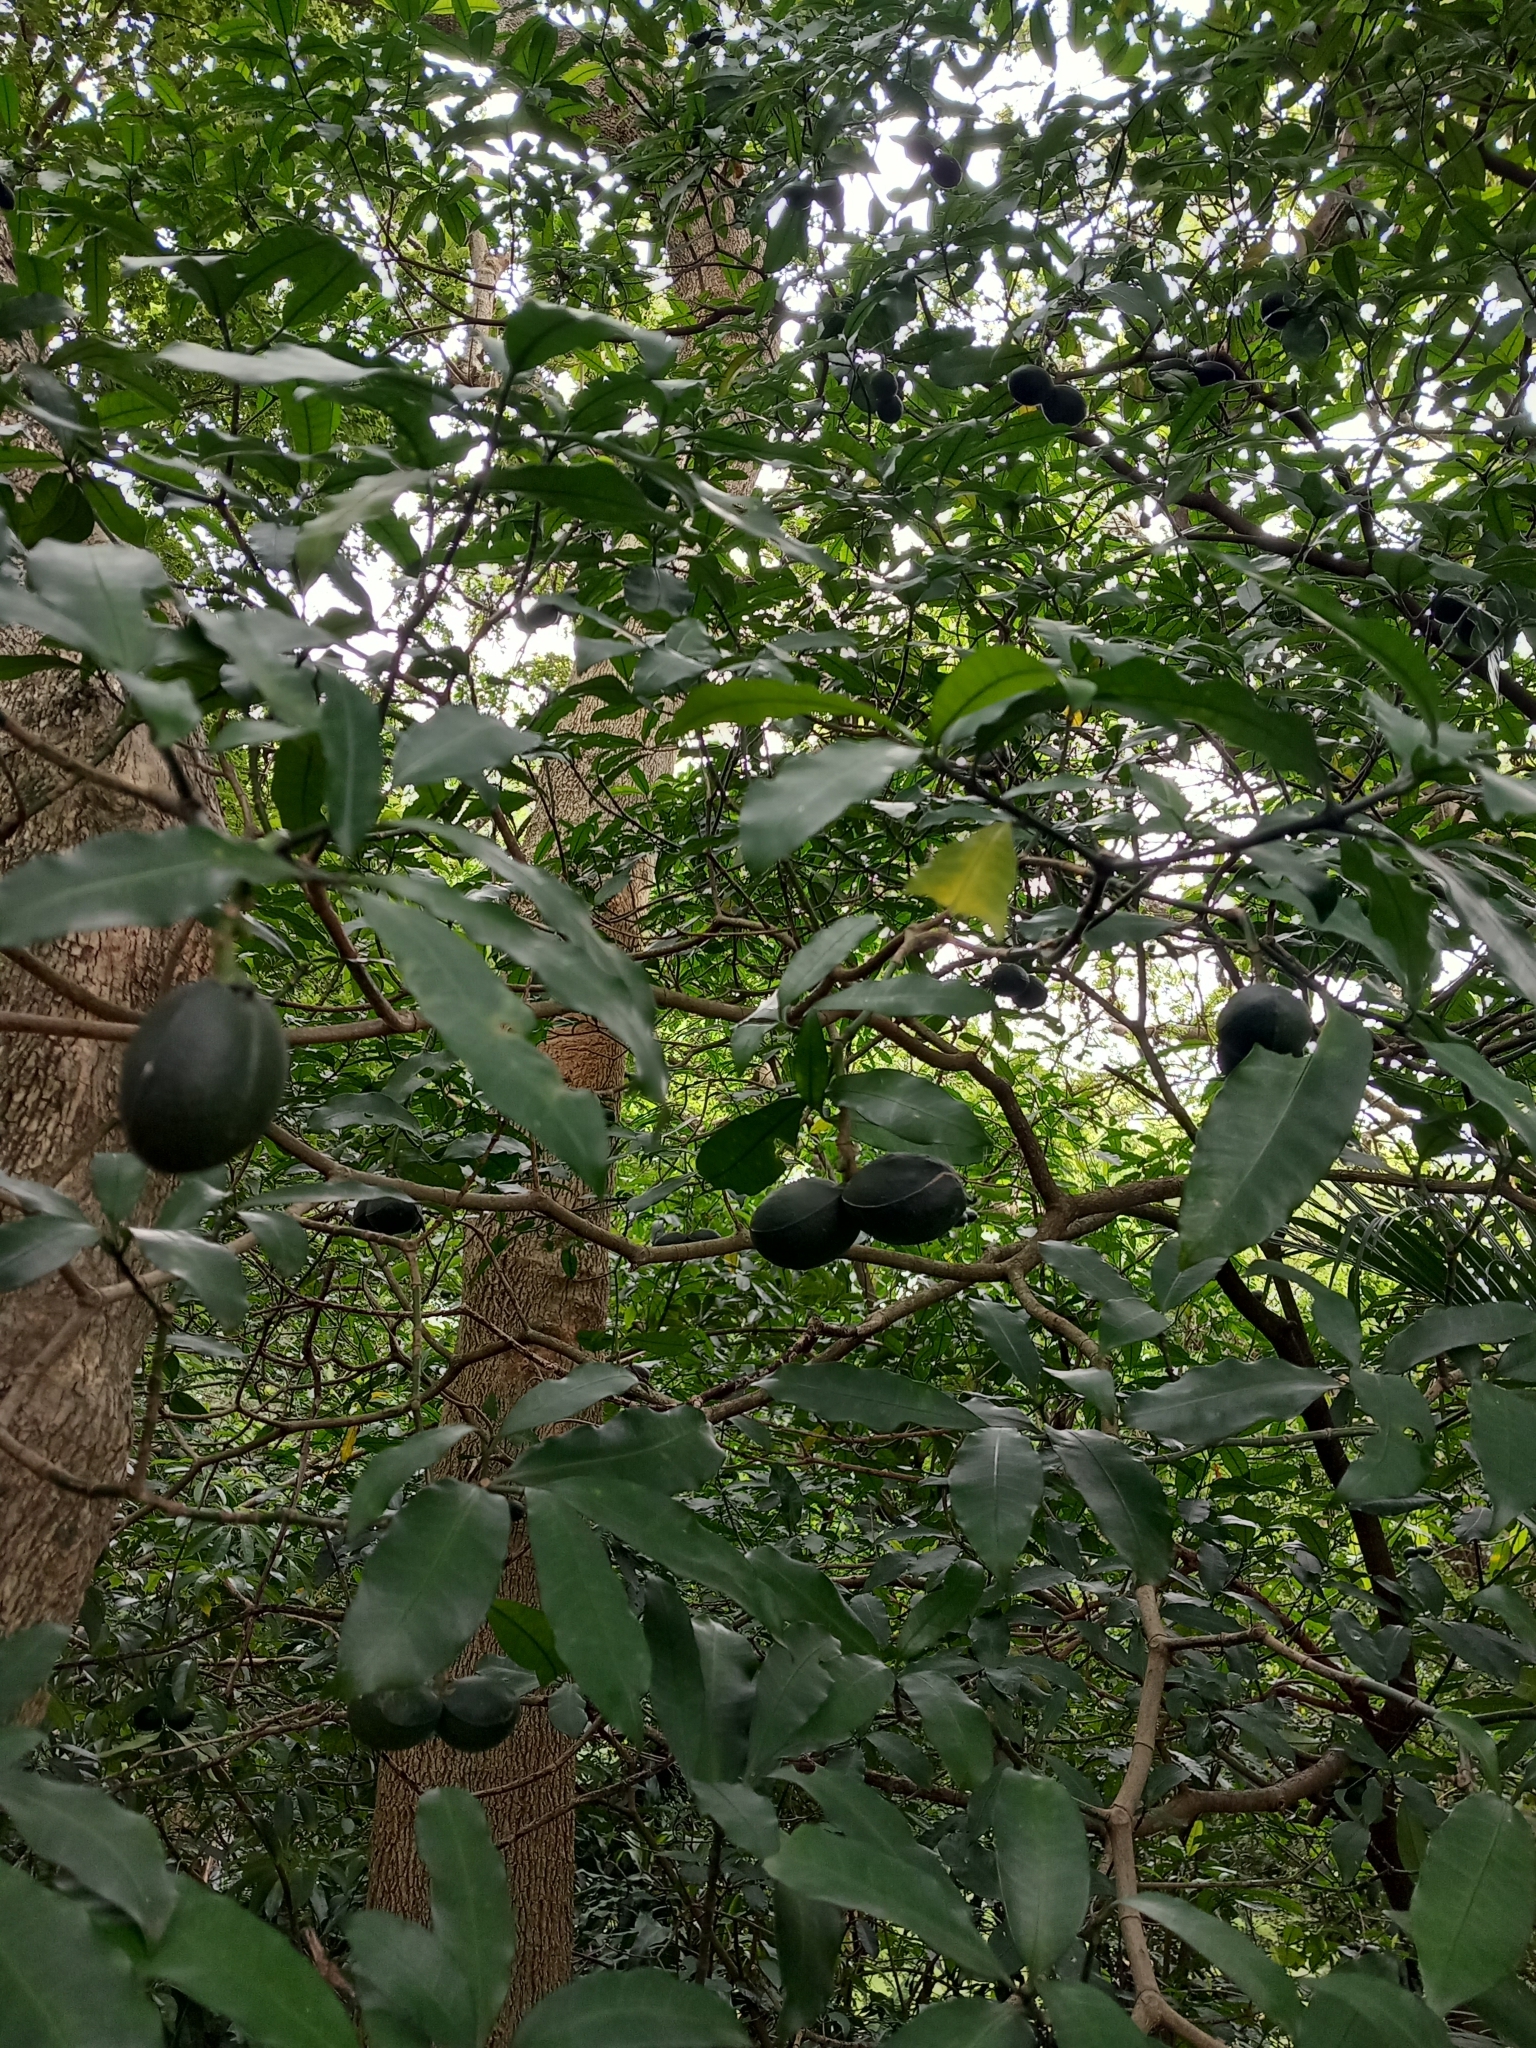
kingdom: Plantae
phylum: Tracheophyta
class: Magnoliopsida
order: Gentianales
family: Apocynaceae
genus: Tabernaemontana
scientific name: Tabernaemontana ventricosa
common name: Forest toad-tree
